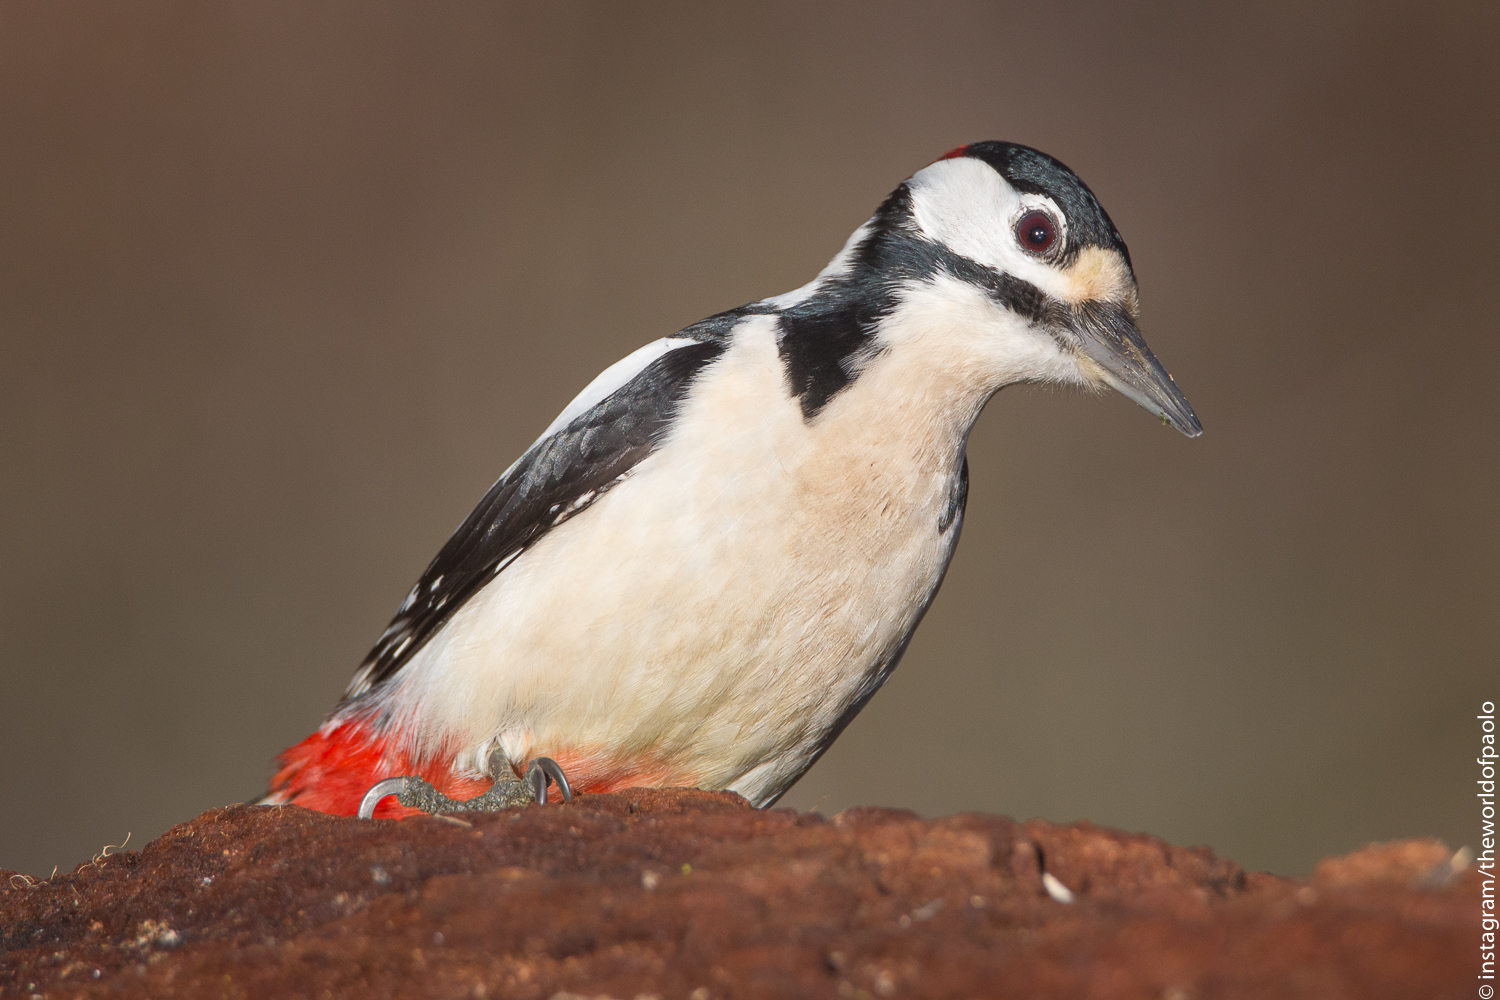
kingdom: Animalia
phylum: Chordata
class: Aves
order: Piciformes
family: Picidae
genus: Dendrocopos
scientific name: Dendrocopos major
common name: Great spotted woodpecker
